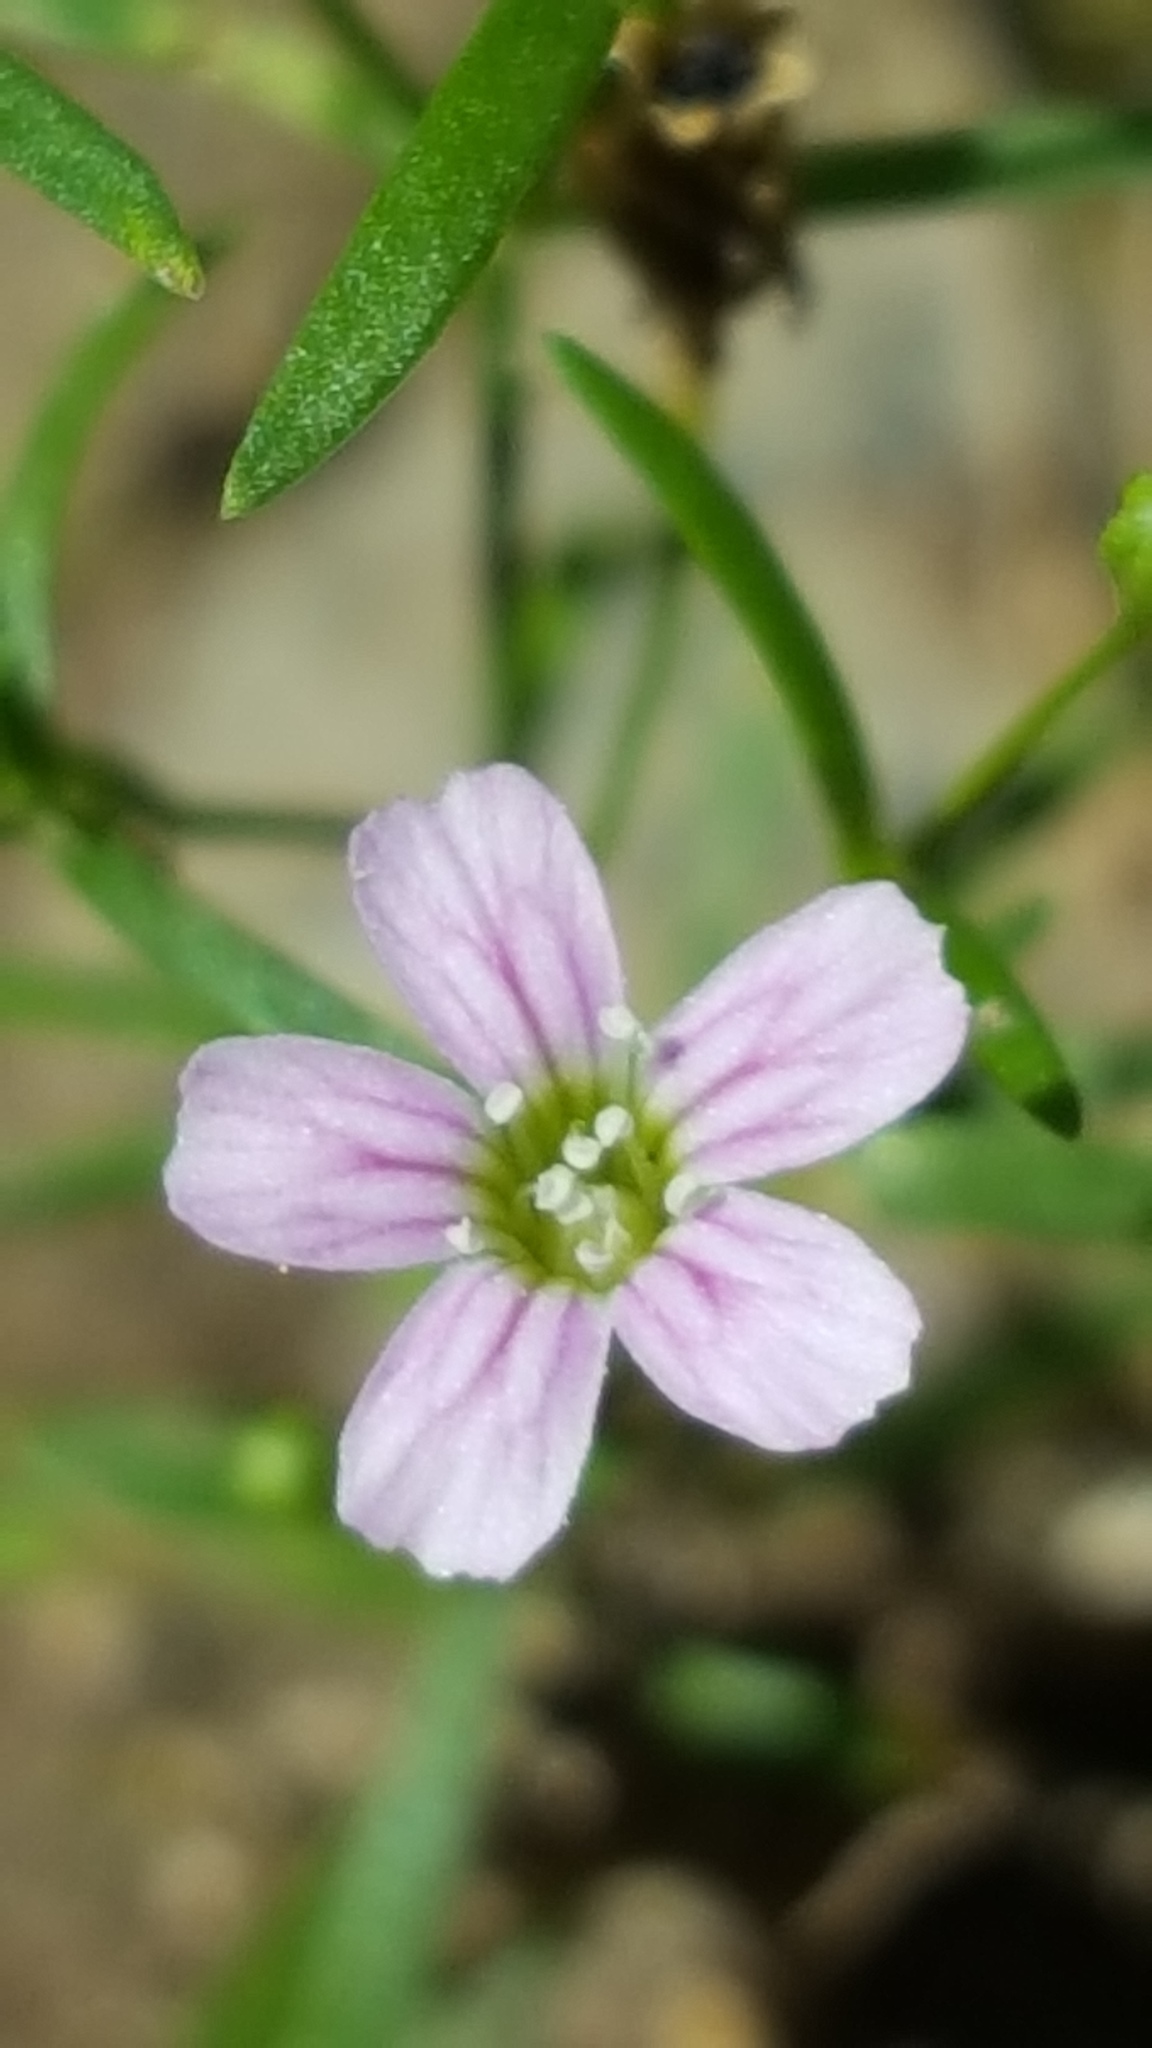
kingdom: Plantae
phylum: Tracheophyta
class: Magnoliopsida
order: Caryophyllales
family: Caryophyllaceae
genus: Psammophiliella
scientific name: Psammophiliella muralis
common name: Cushion baby's-breath
